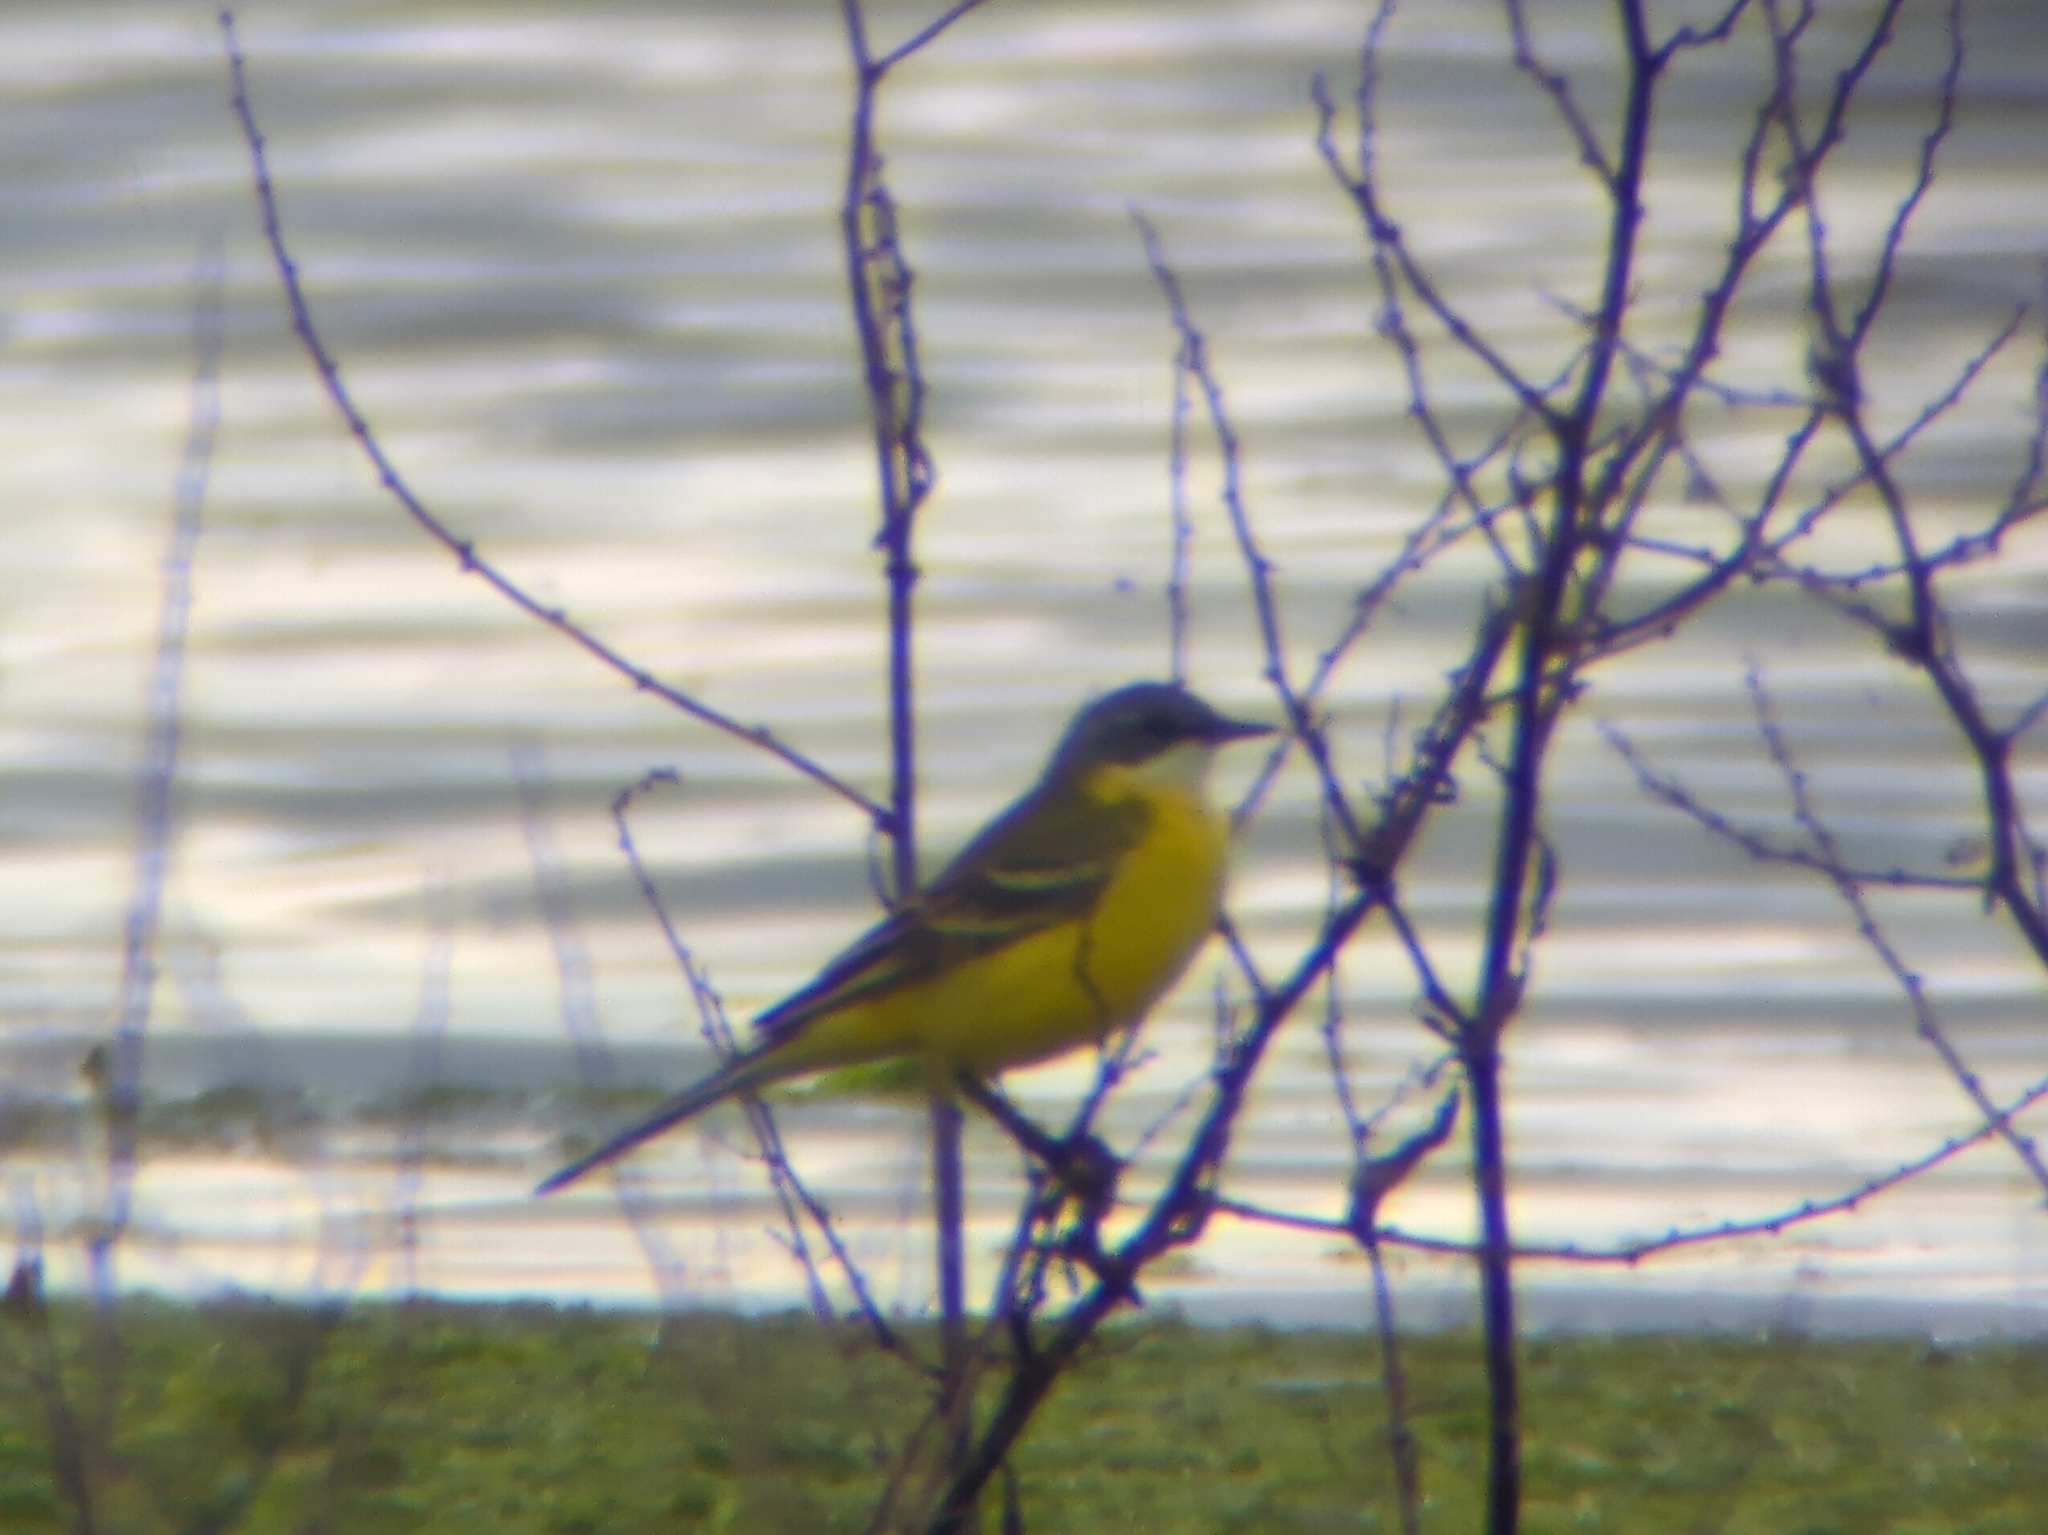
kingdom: Animalia
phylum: Chordata
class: Aves
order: Passeriformes
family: Motacillidae
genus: Motacilla
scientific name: Motacilla flava
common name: Western yellow wagtail
